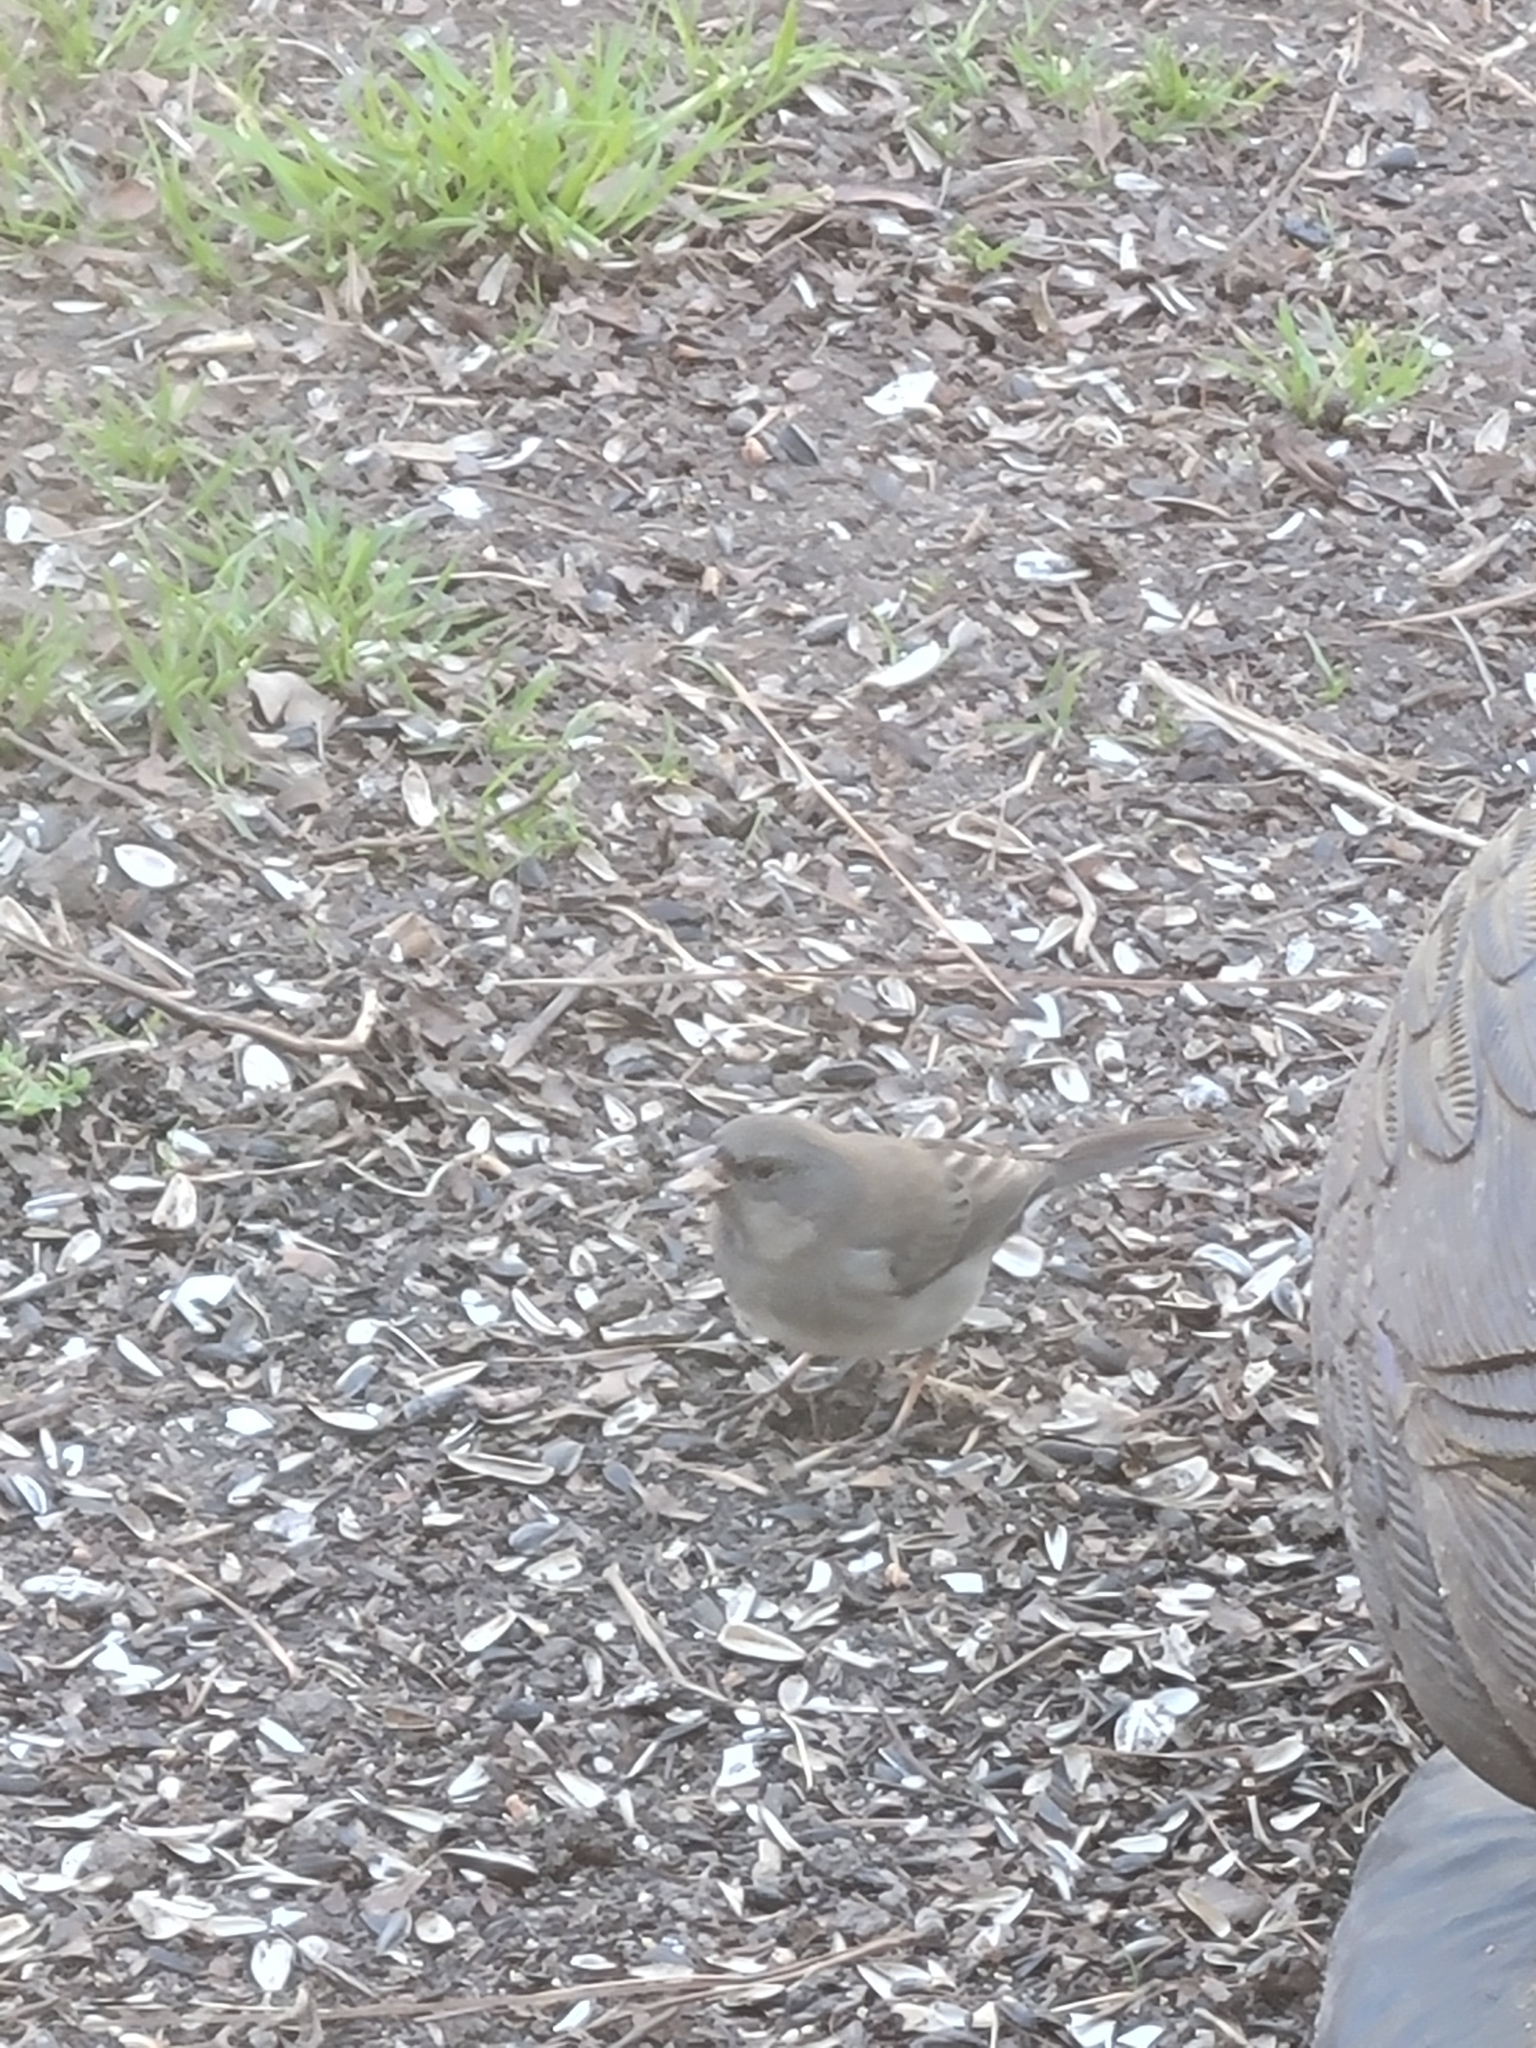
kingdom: Animalia
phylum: Chordata
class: Aves
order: Passeriformes
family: Passerellidae
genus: Junco
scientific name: Junco hyemalis
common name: Dark-eyed junco
